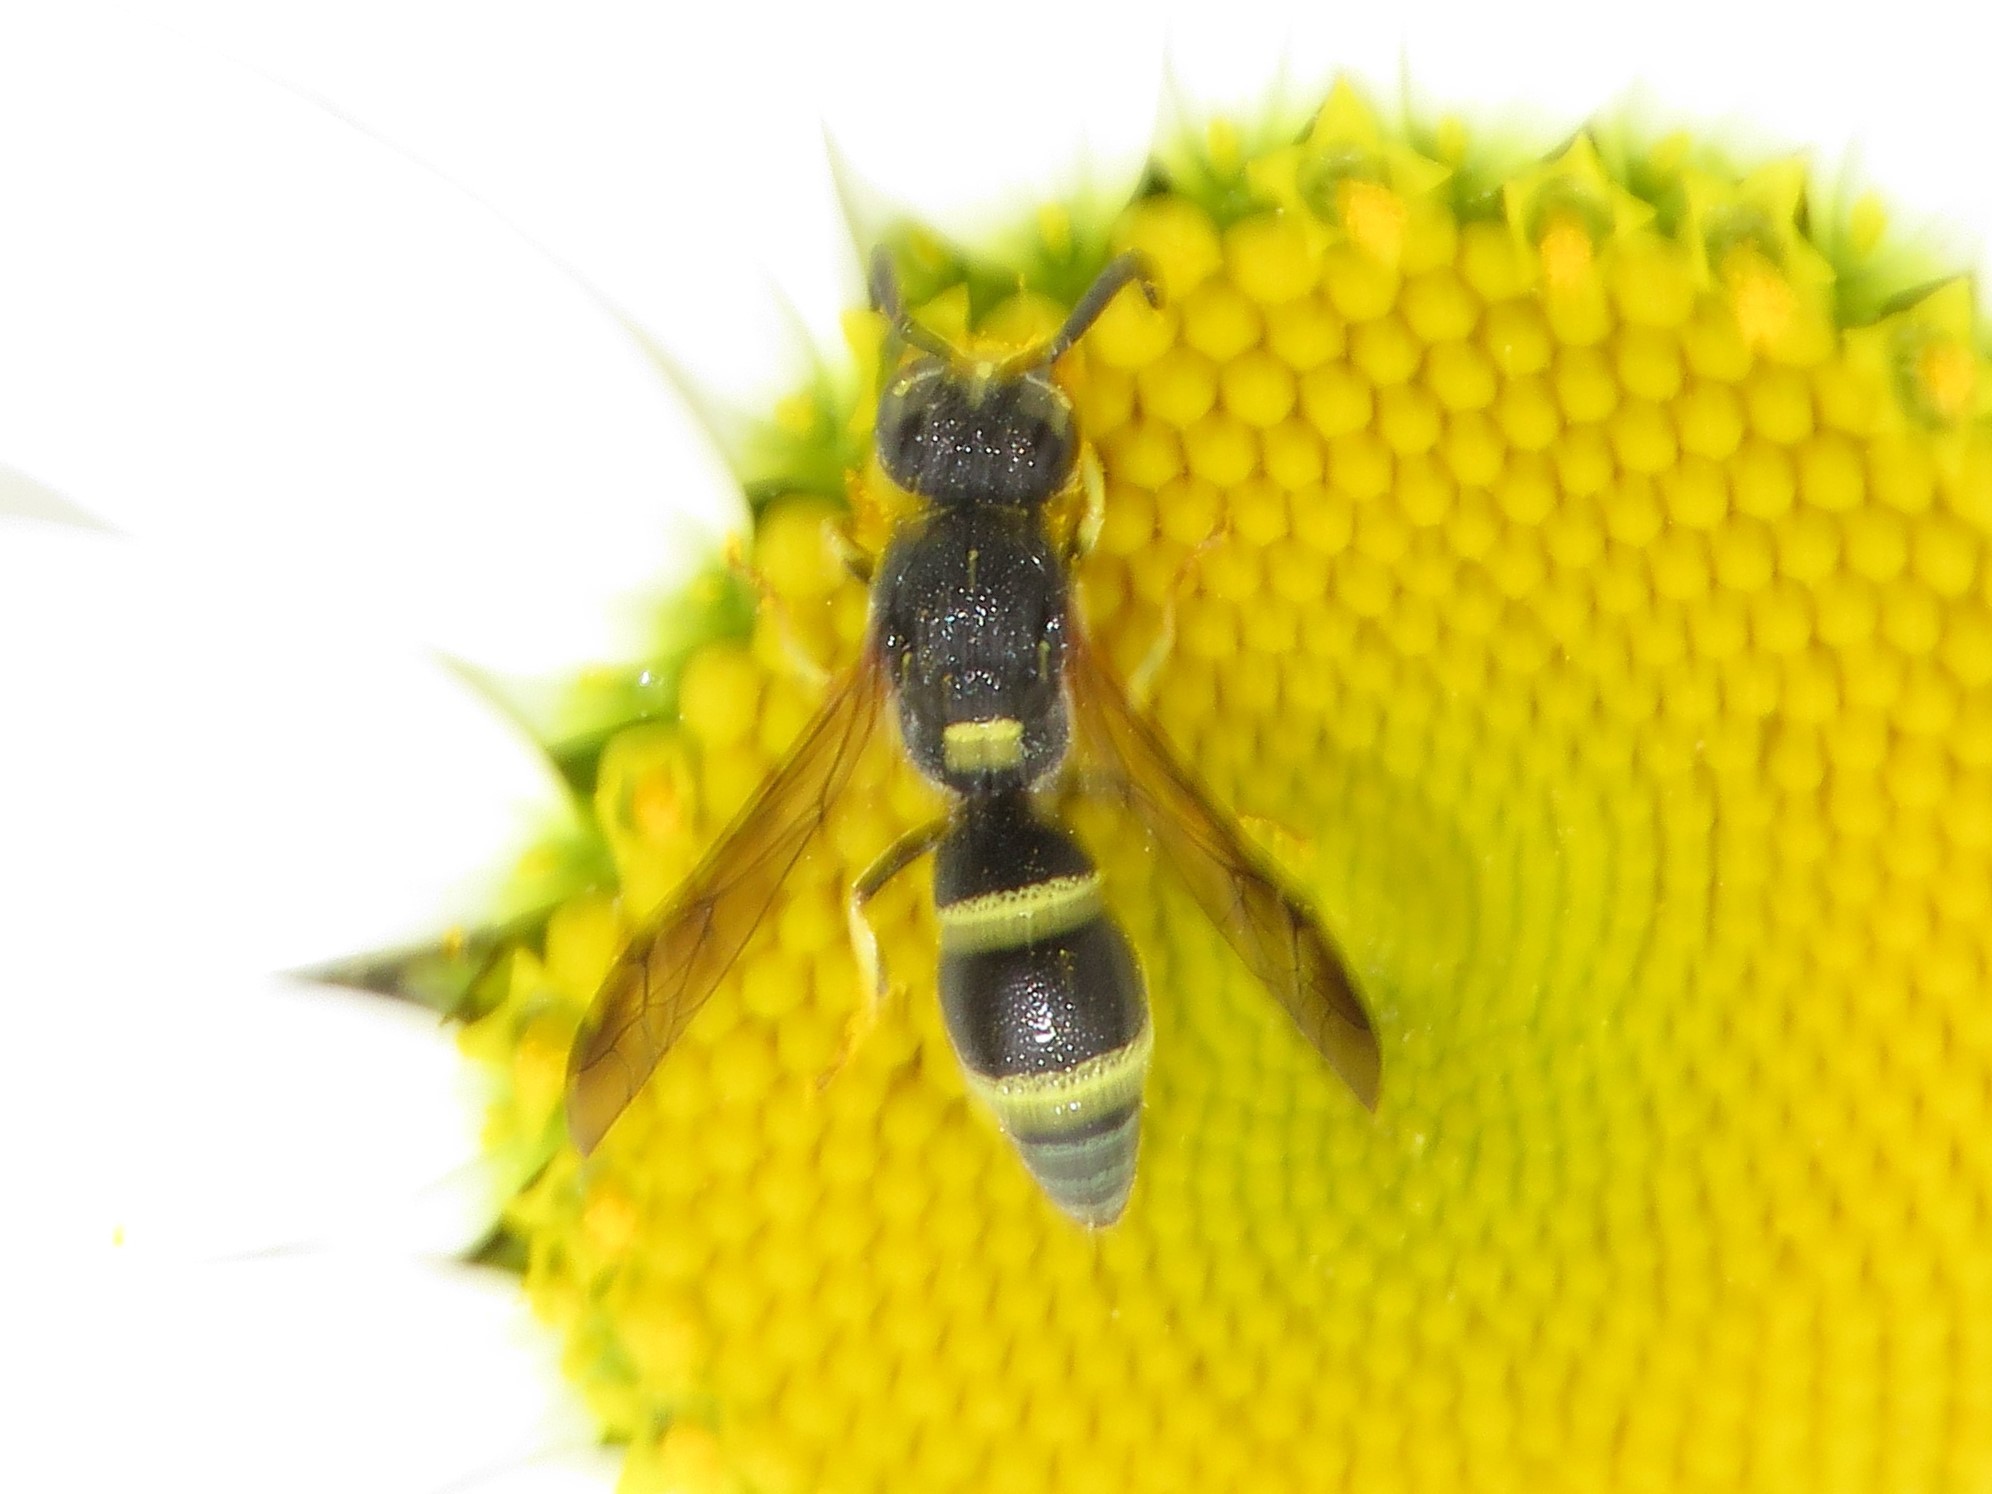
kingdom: Animalia
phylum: Arthropoda
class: Insecta
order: Hymenoptera
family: Eumenidae
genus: Parancistrocerus
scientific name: Parancistrocerus pensylvanicus
